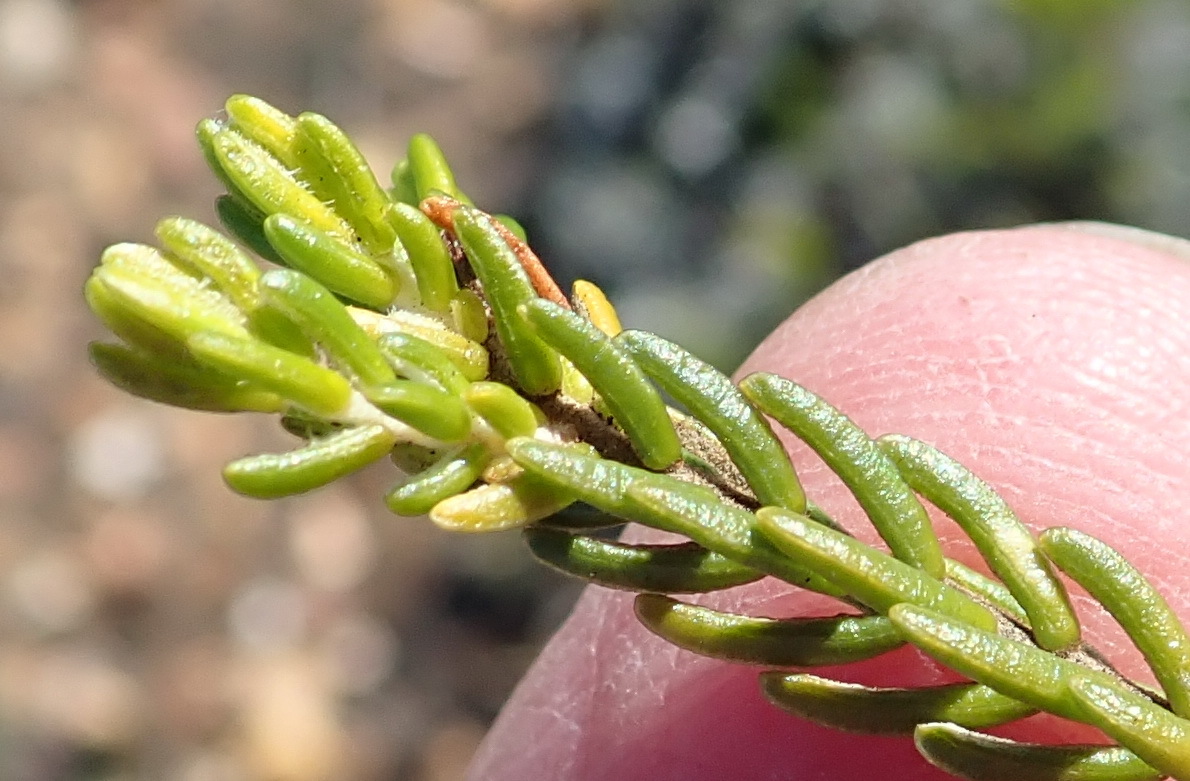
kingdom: Plantae
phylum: Tracheophyta
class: Magnoliopsida
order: Malvales
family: Thymelaeaceae
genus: Passerina
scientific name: Passerina galpinii
